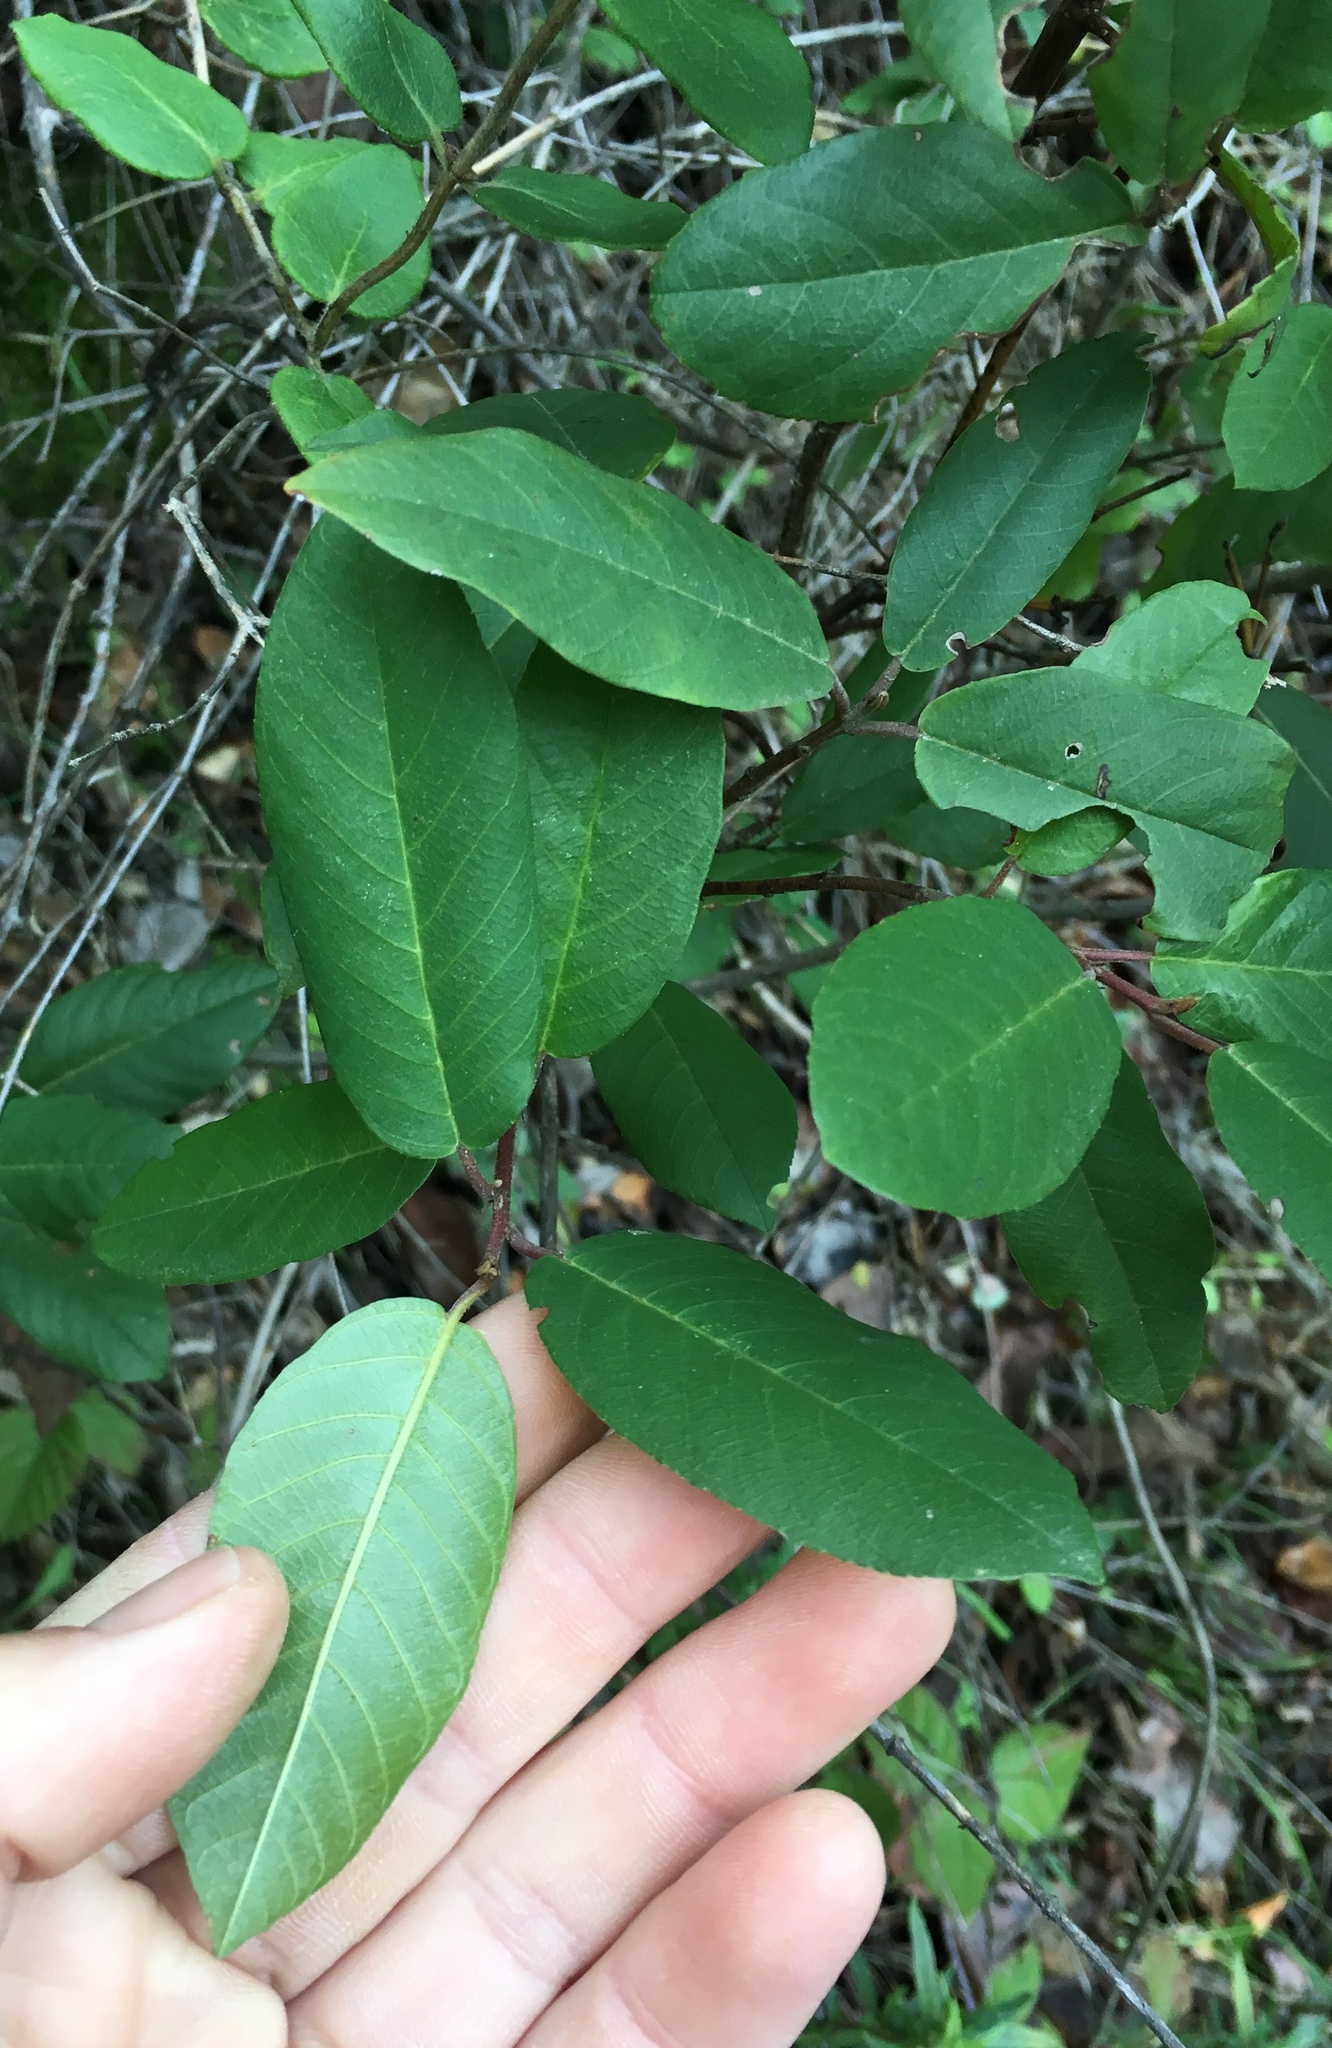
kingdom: Plantae
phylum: Tracheophyta
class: Magnoliopsida
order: Rosales
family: Rhamnaceae
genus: Frangula
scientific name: Frangula californica
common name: California buckthorn
